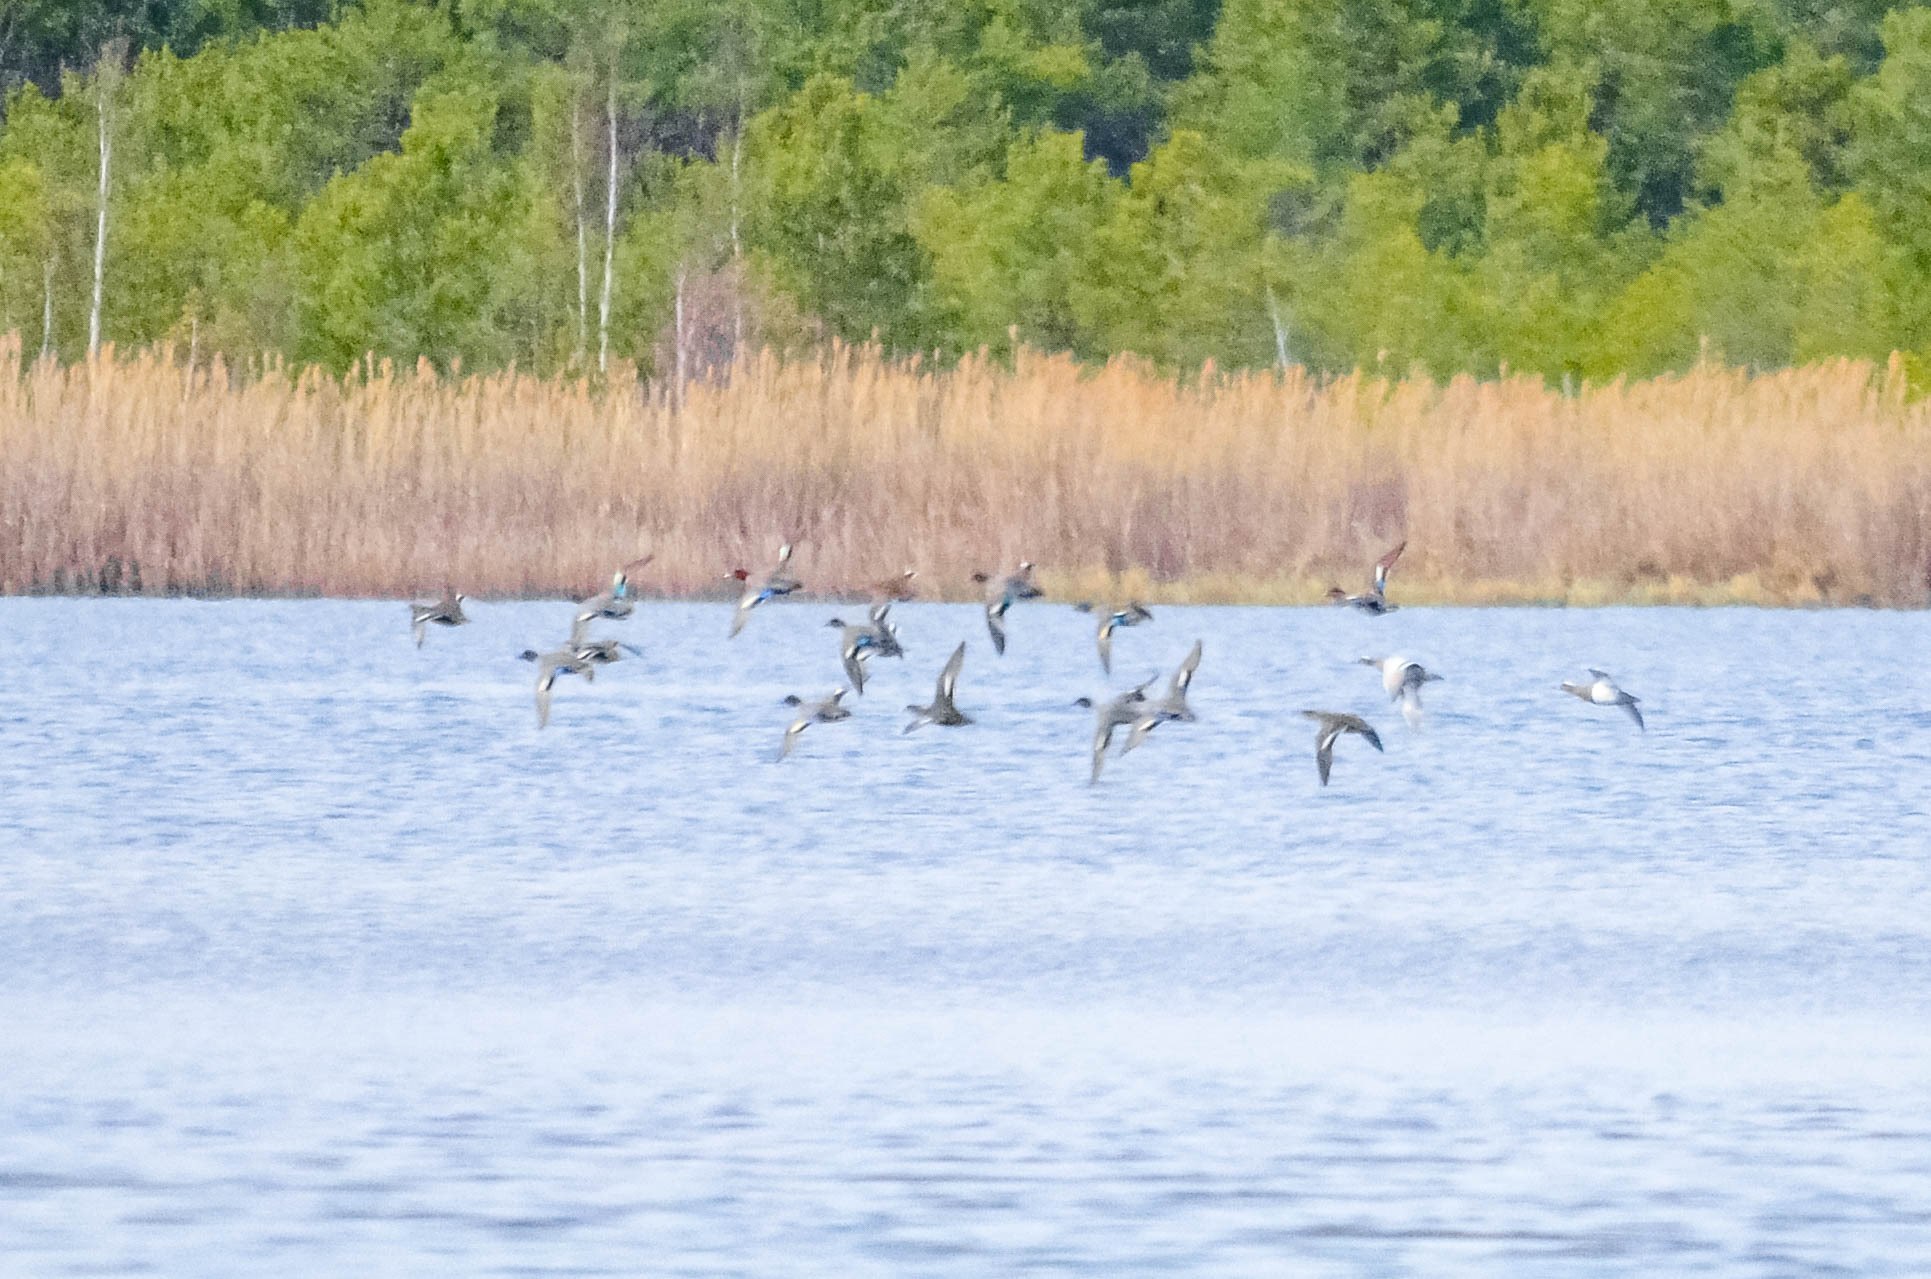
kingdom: Animalia
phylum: Chordata
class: Aves
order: Anseriformes
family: Anatidae
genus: Anas
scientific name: Anas crecca
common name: Eurasian teal
